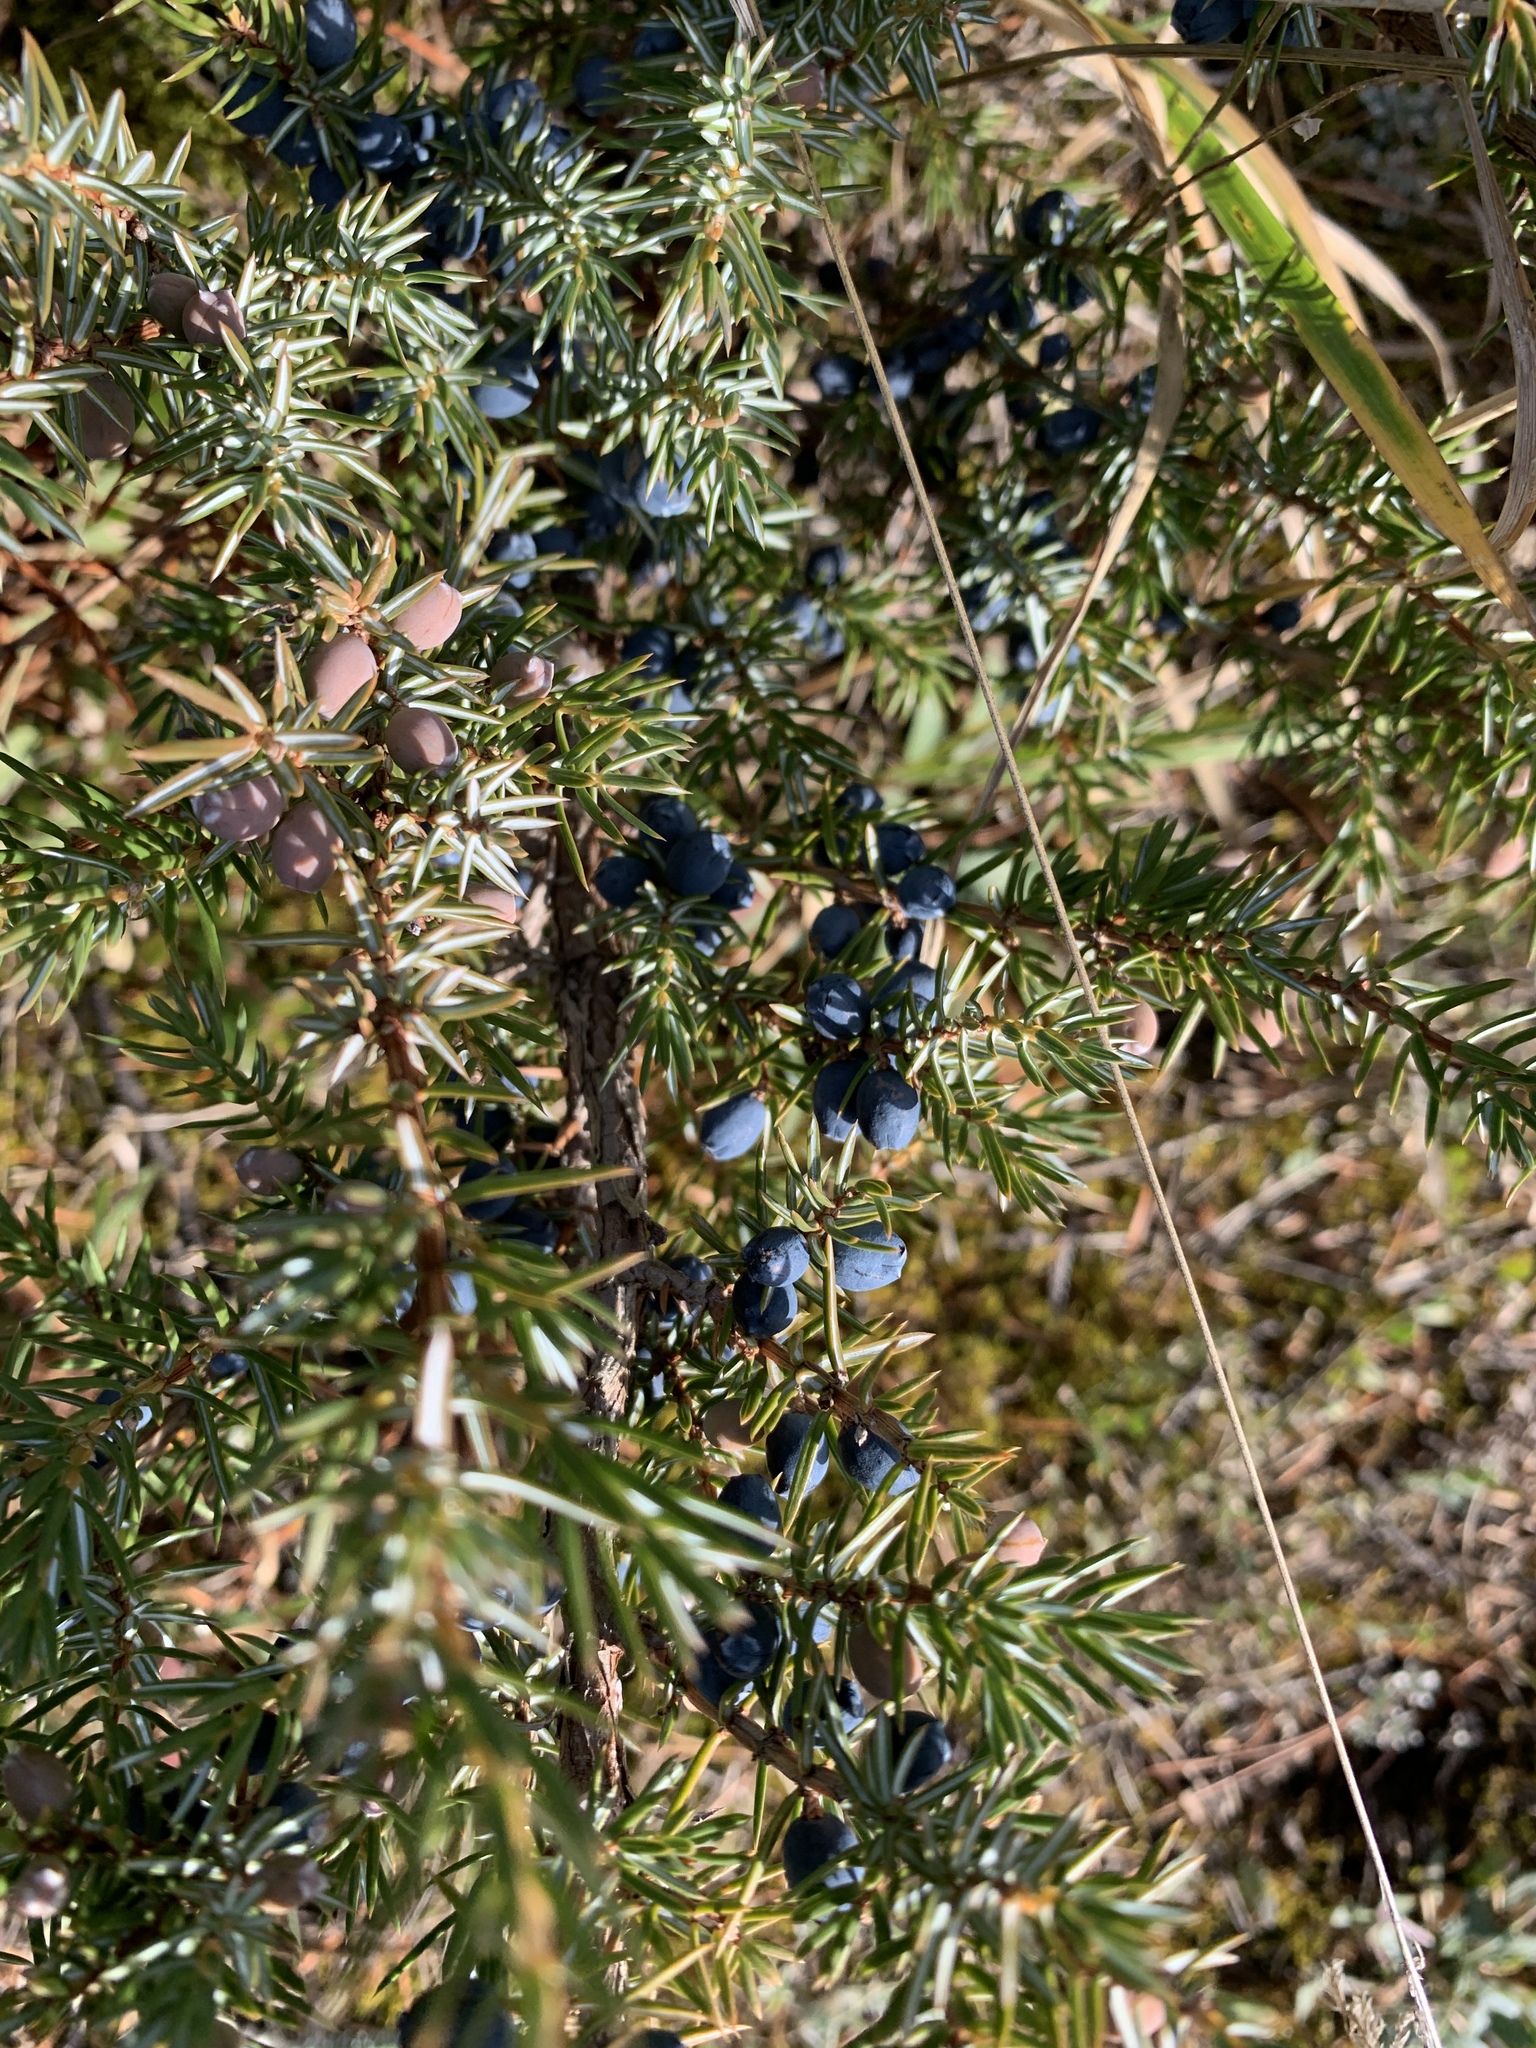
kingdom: Plantae
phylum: Tracheophyta
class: Pinopsida
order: Pinales
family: Cupressaceae
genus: Juniperus
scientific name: Juniperus communis
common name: Common juniper
